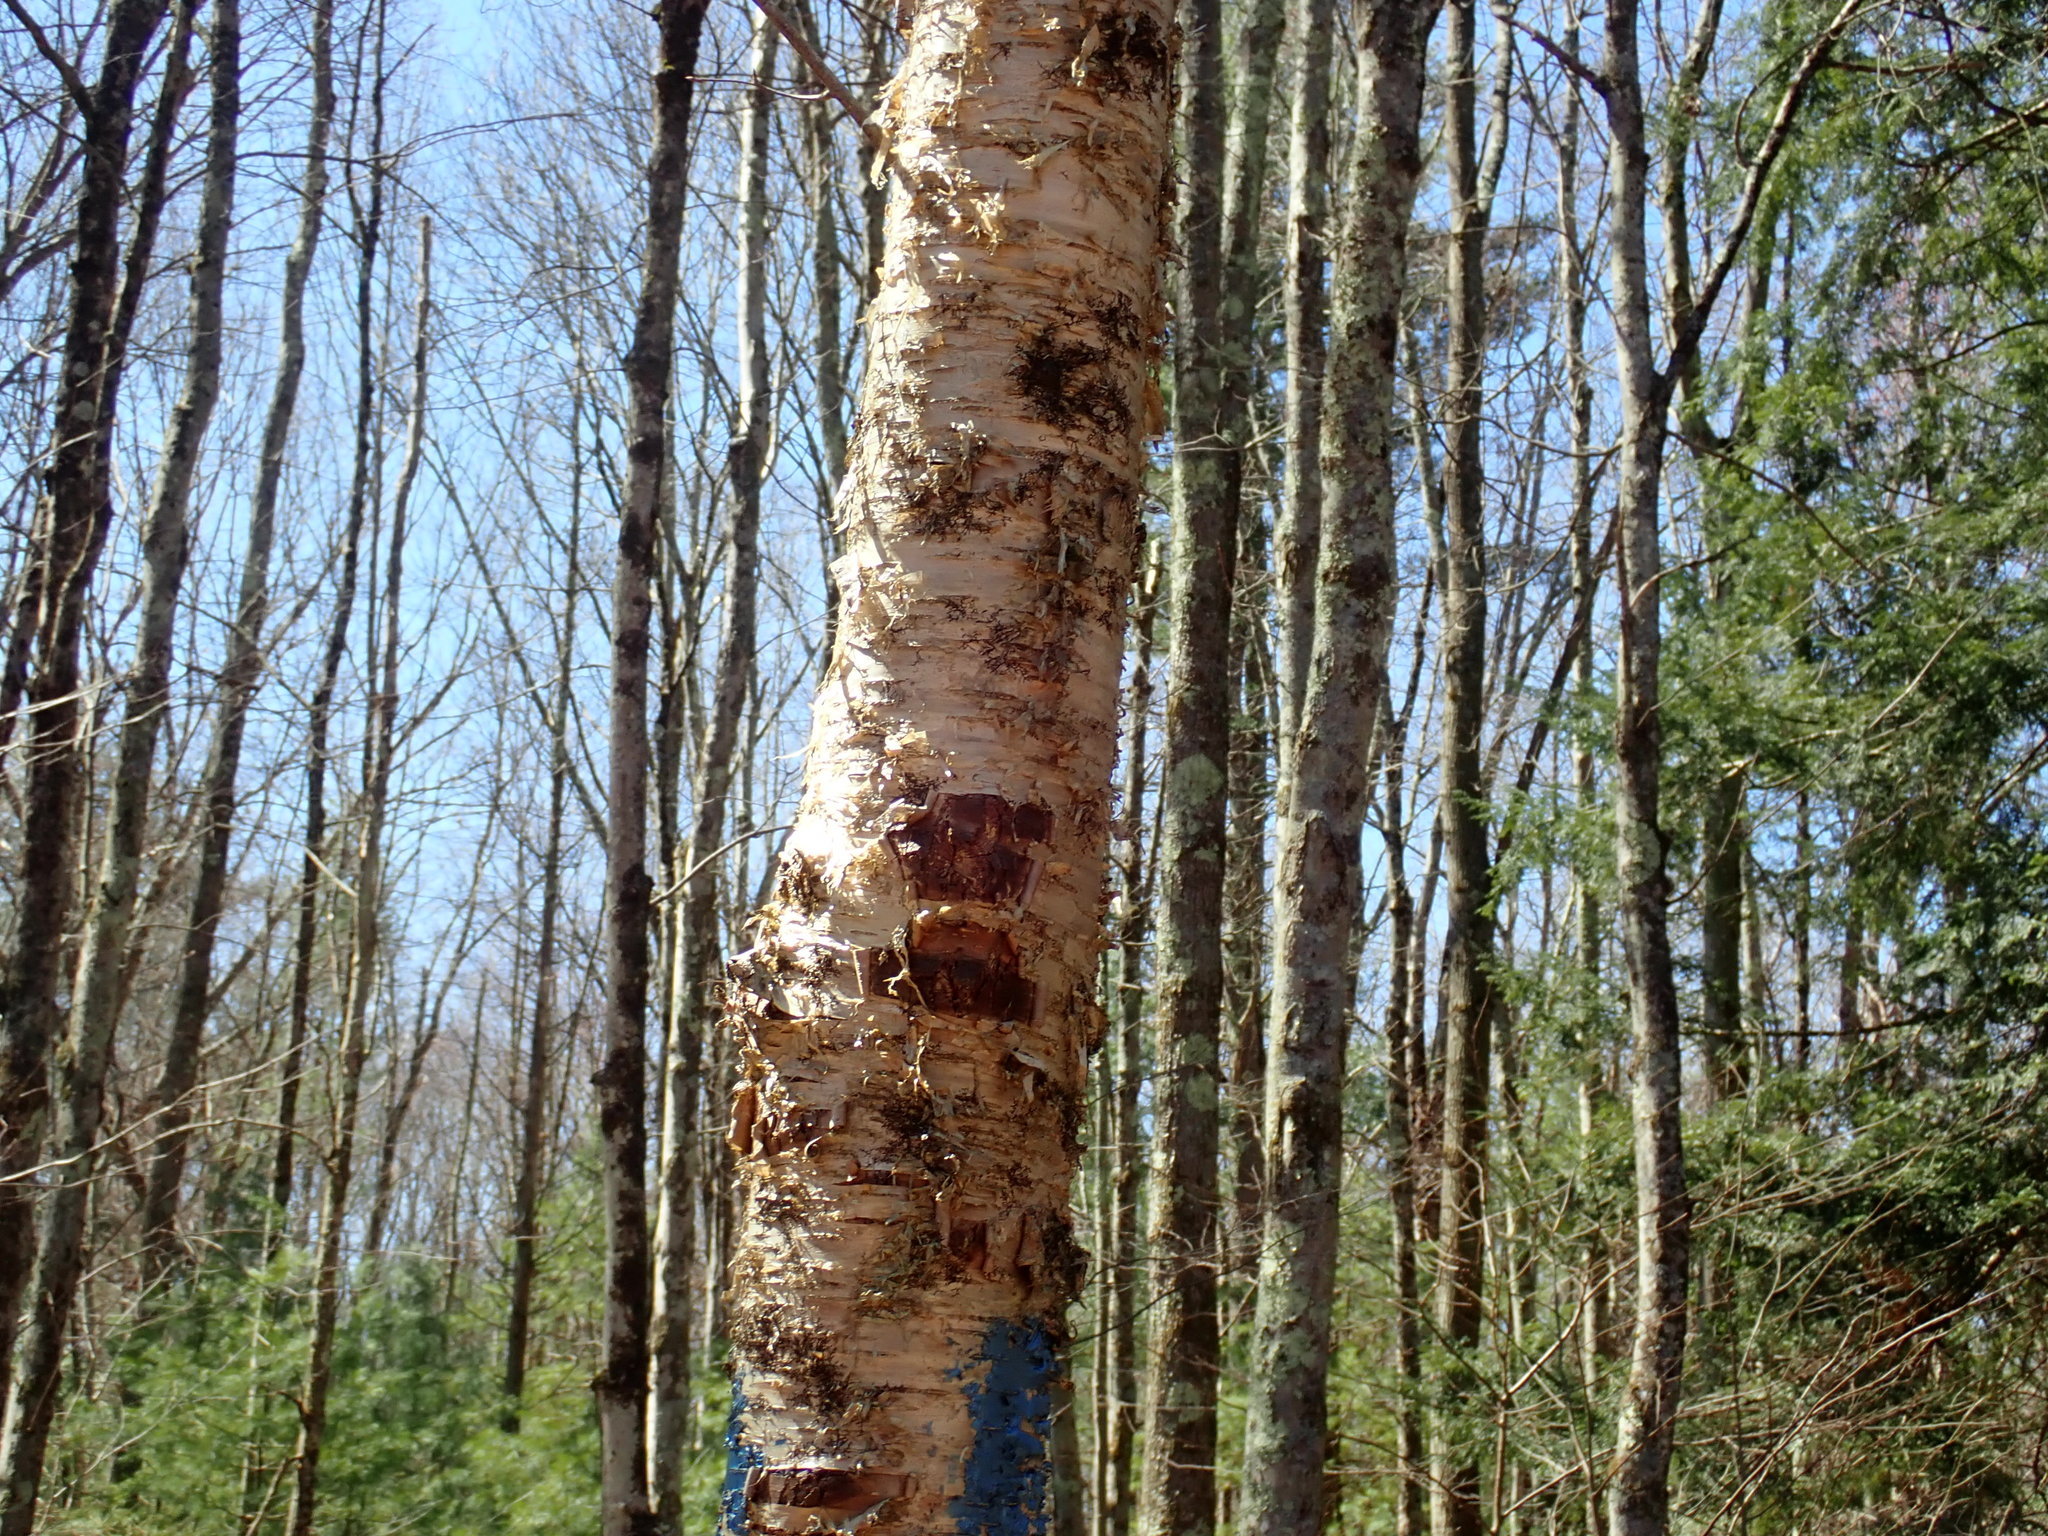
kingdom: Plantae
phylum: Tracheophyta
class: Magnoliopsida
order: Fagales
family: Betulaceae
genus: Betula
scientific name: Betula alleghaniensis
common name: Yellow birch
